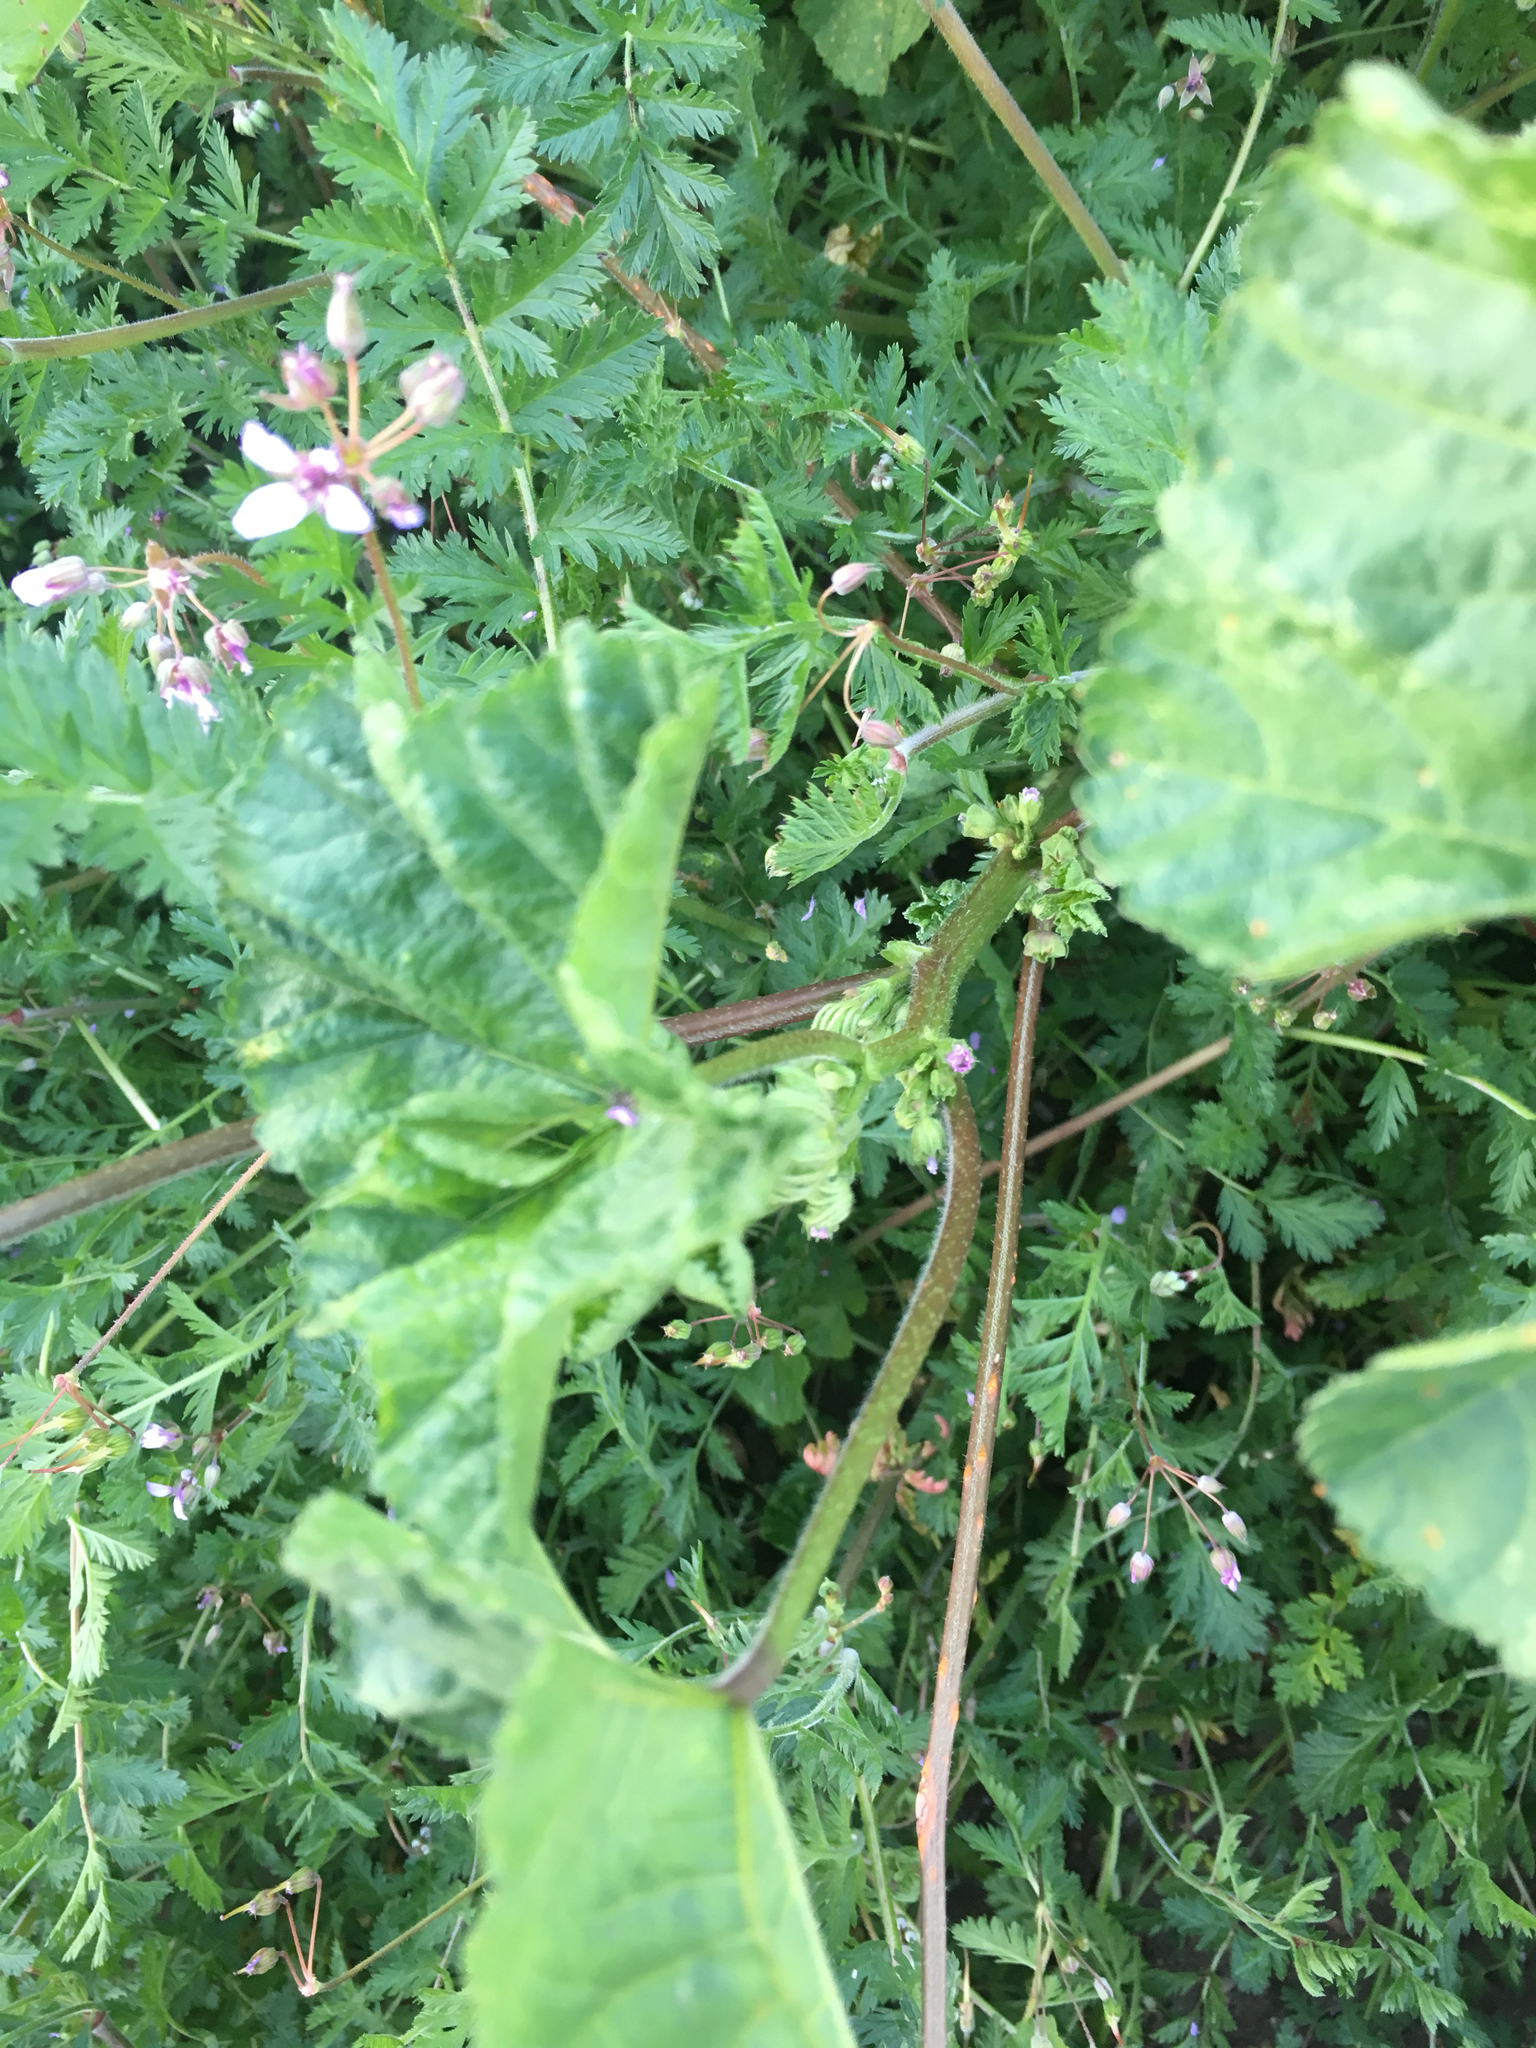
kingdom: Plantae
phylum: Tracheophyta
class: Magnoliopsida
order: Malvales
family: Malvaceae
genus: Malva
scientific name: Malva parviflora
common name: Least mallow
